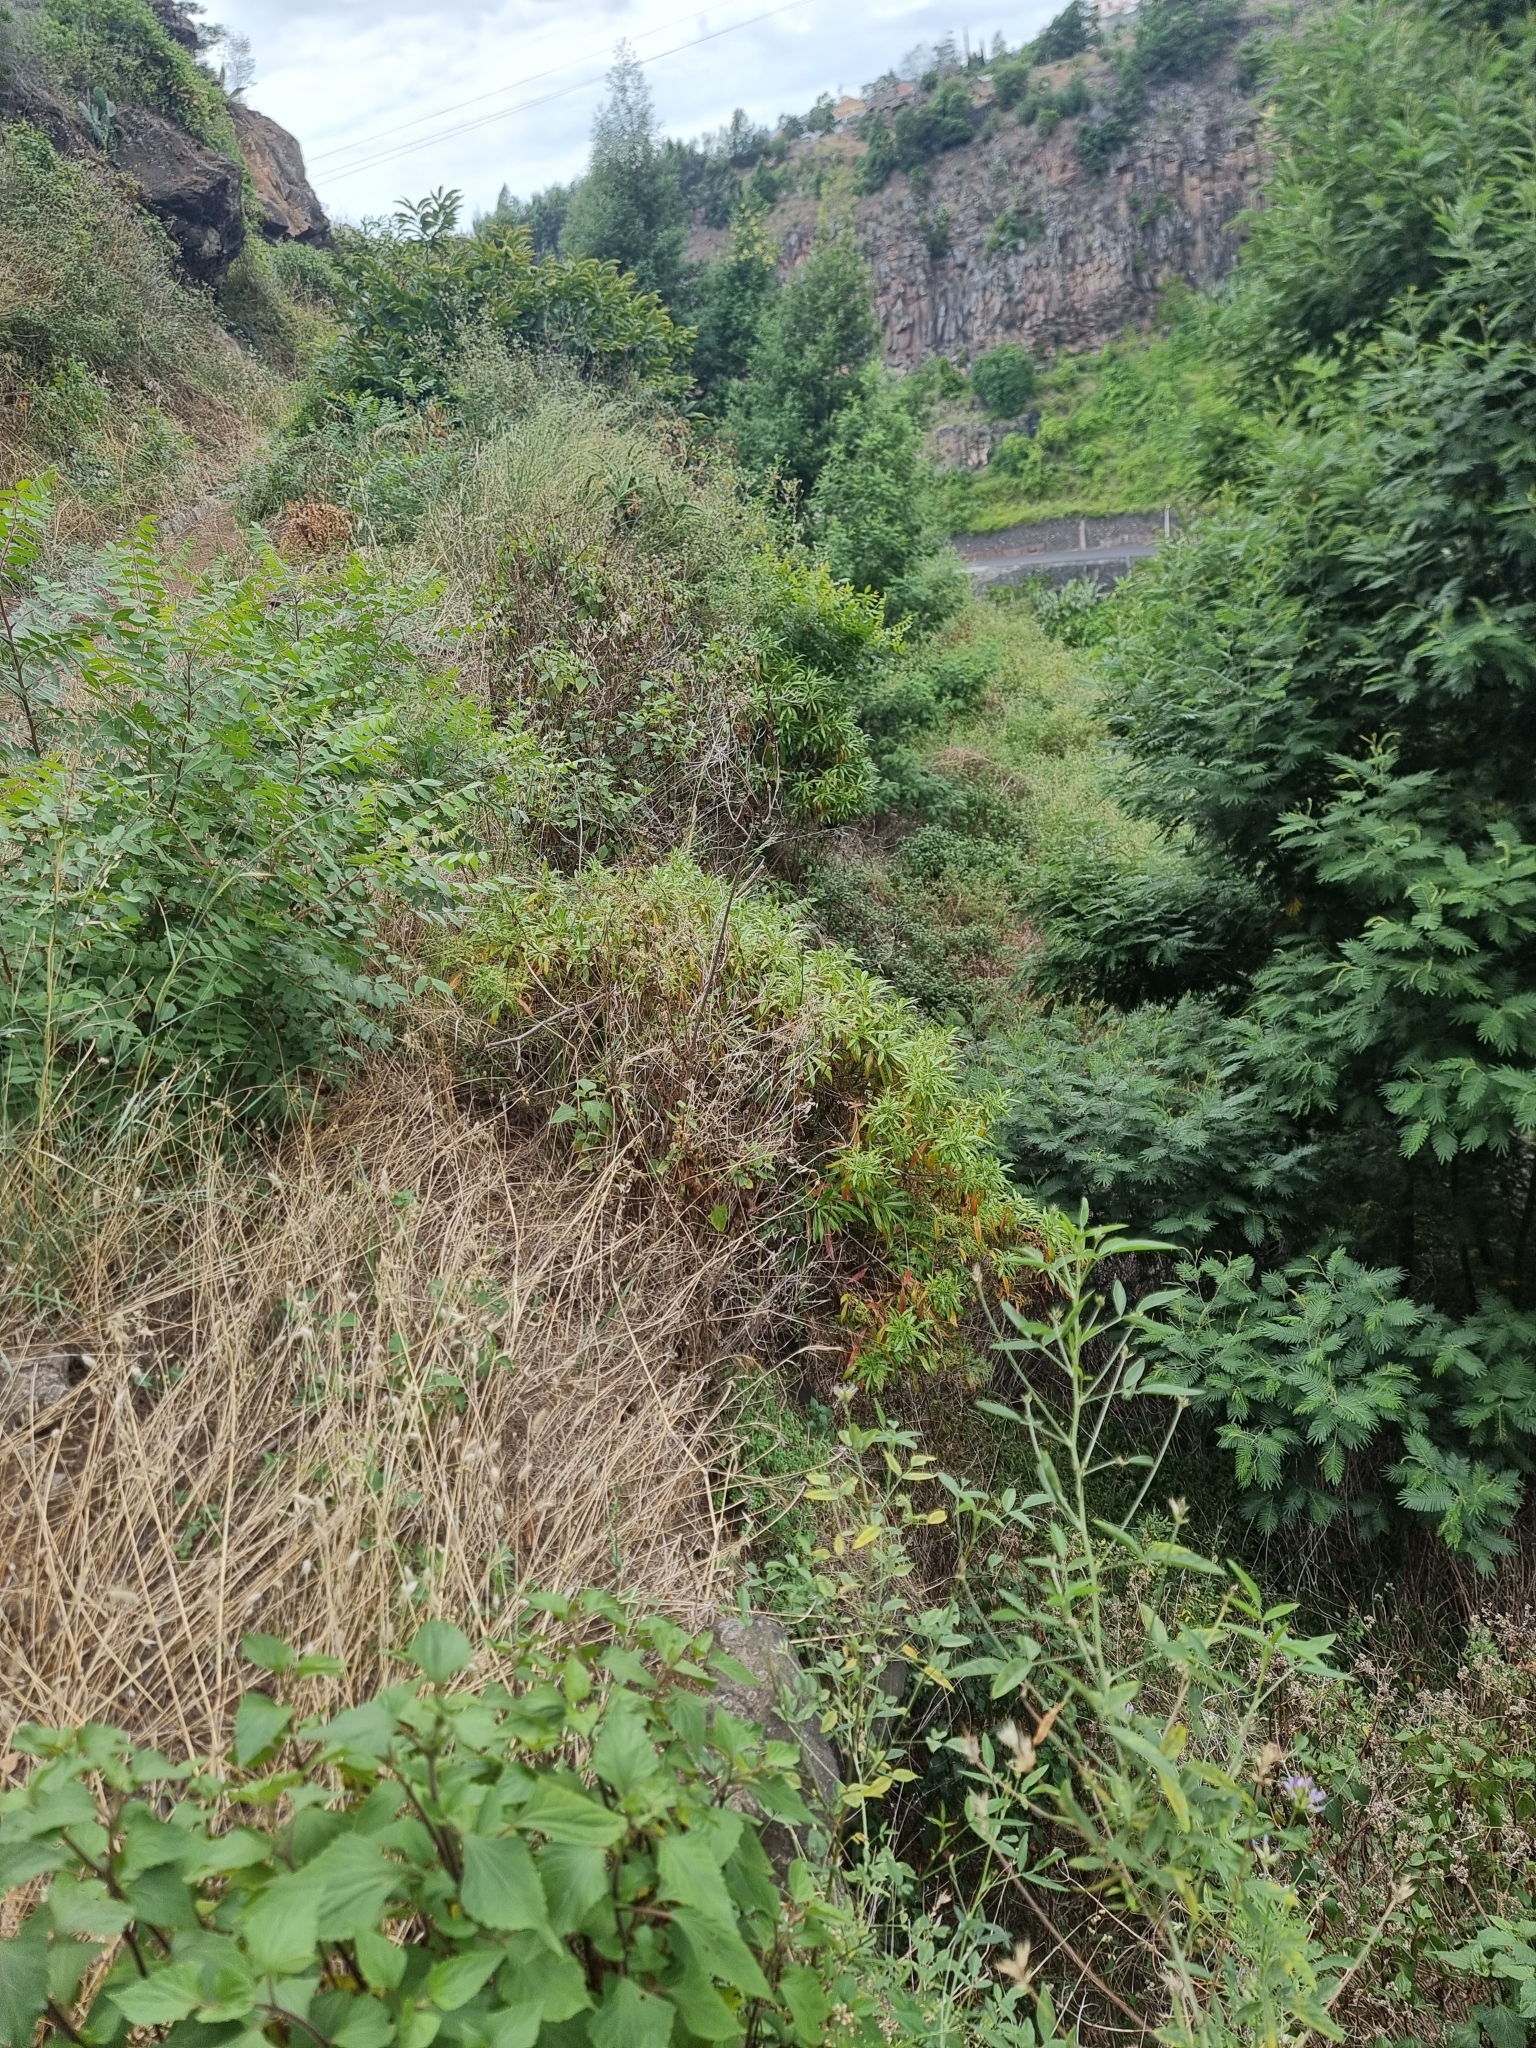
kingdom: Plantae
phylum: Tracheophyta
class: Magnoliopsida
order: Gentianales
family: Rubiaceae
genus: Phyllis
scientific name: Phyllis nobla
